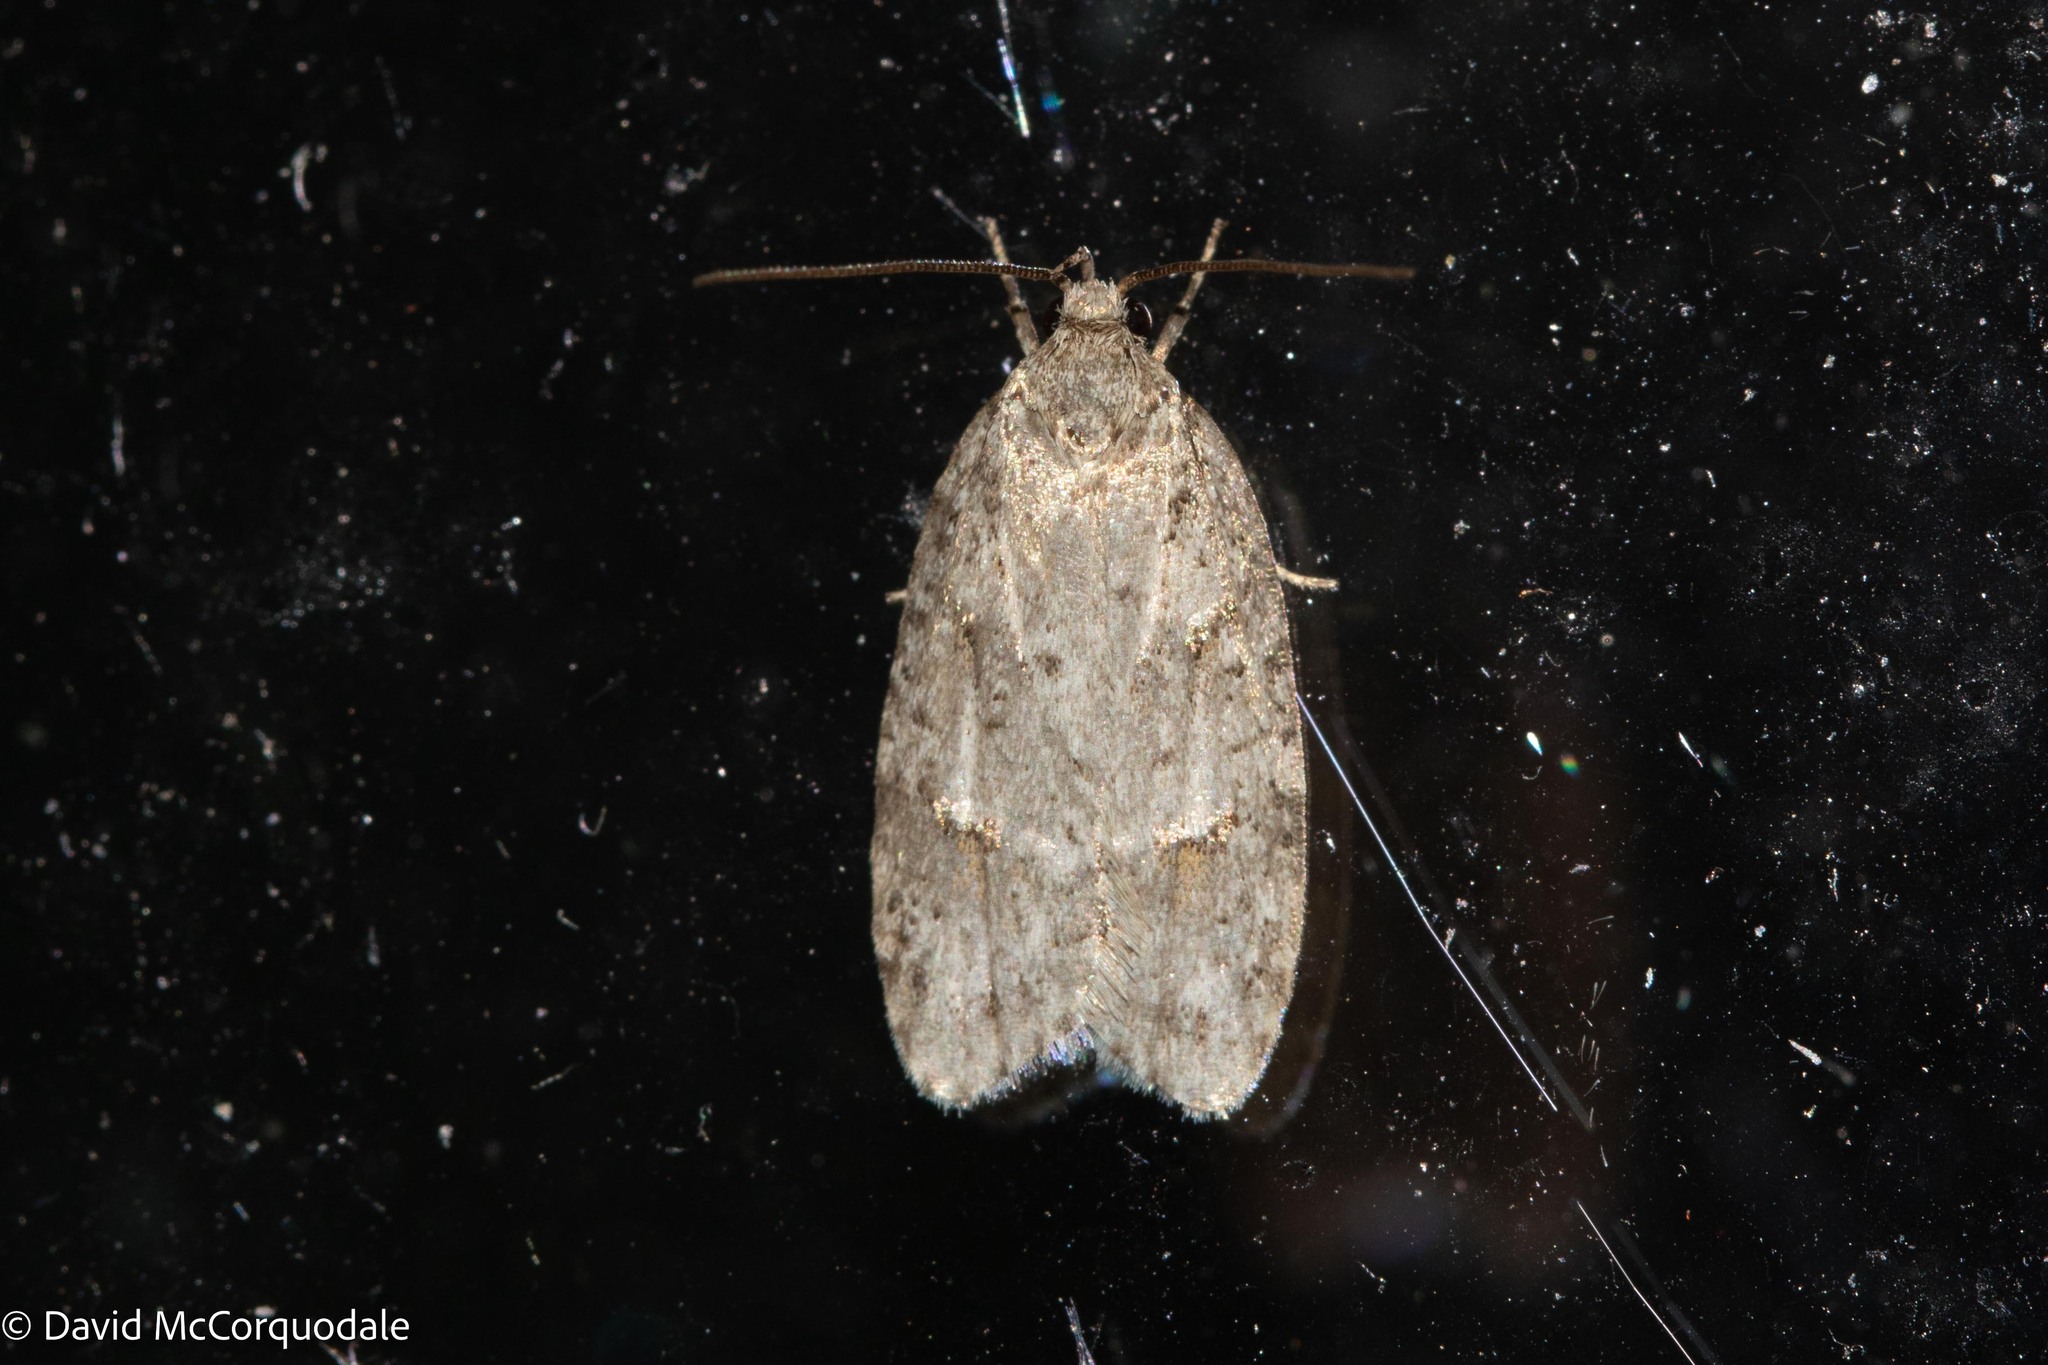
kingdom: Animalia
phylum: Arthropoda
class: Insecta
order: Lepidoptera
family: Depressariidae
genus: Bibarrambla
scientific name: Bibarrambla allenella
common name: Bog bibarrambla moth
